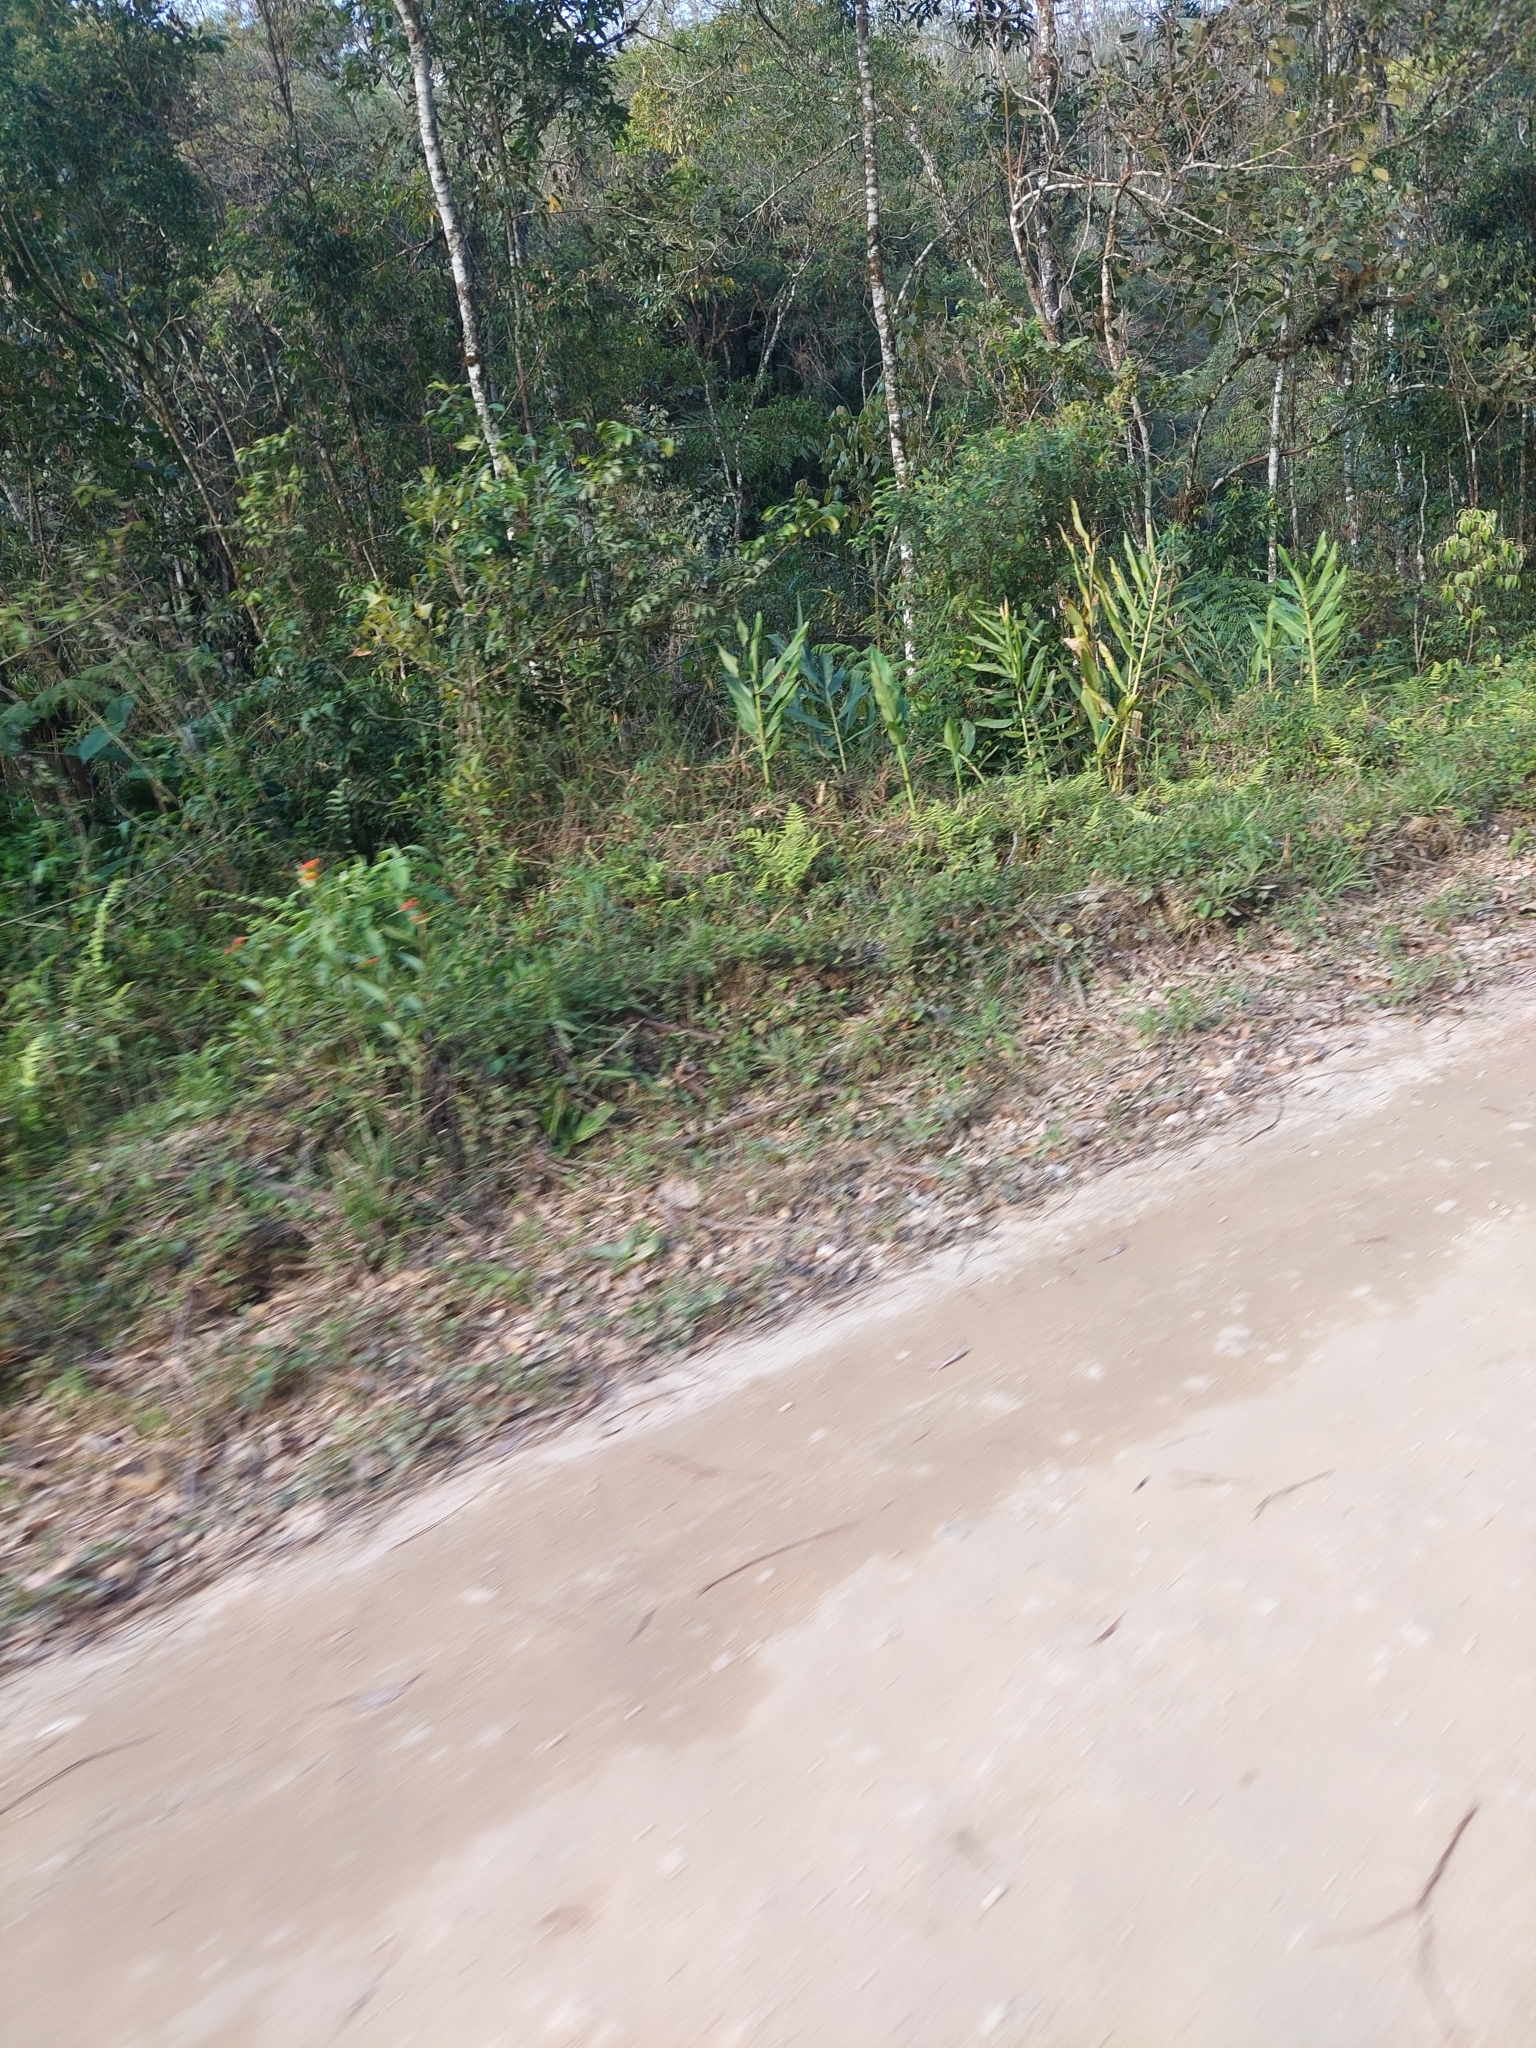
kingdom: Plantae
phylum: Tracheophyta
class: Liliopsida
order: Zingiberales
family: Zingiberaceae
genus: Hedychium
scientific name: Hedychium coronarium
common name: White garland-lily
